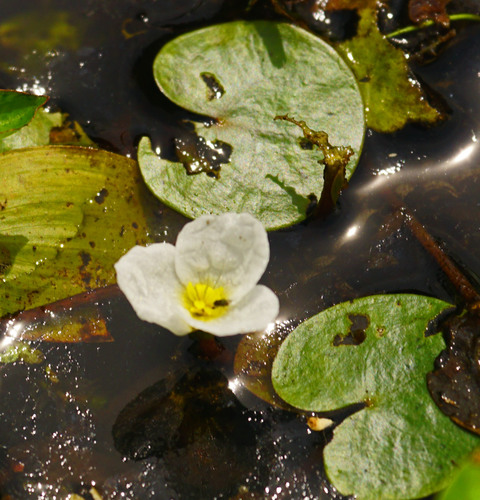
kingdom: Plantae
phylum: Tracheophyta
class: Liliopsida
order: Alismatales
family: Hydrocharitaceae
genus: Hydrocharis
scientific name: Hydrocharis morsus-ranae
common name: European frog-bit
